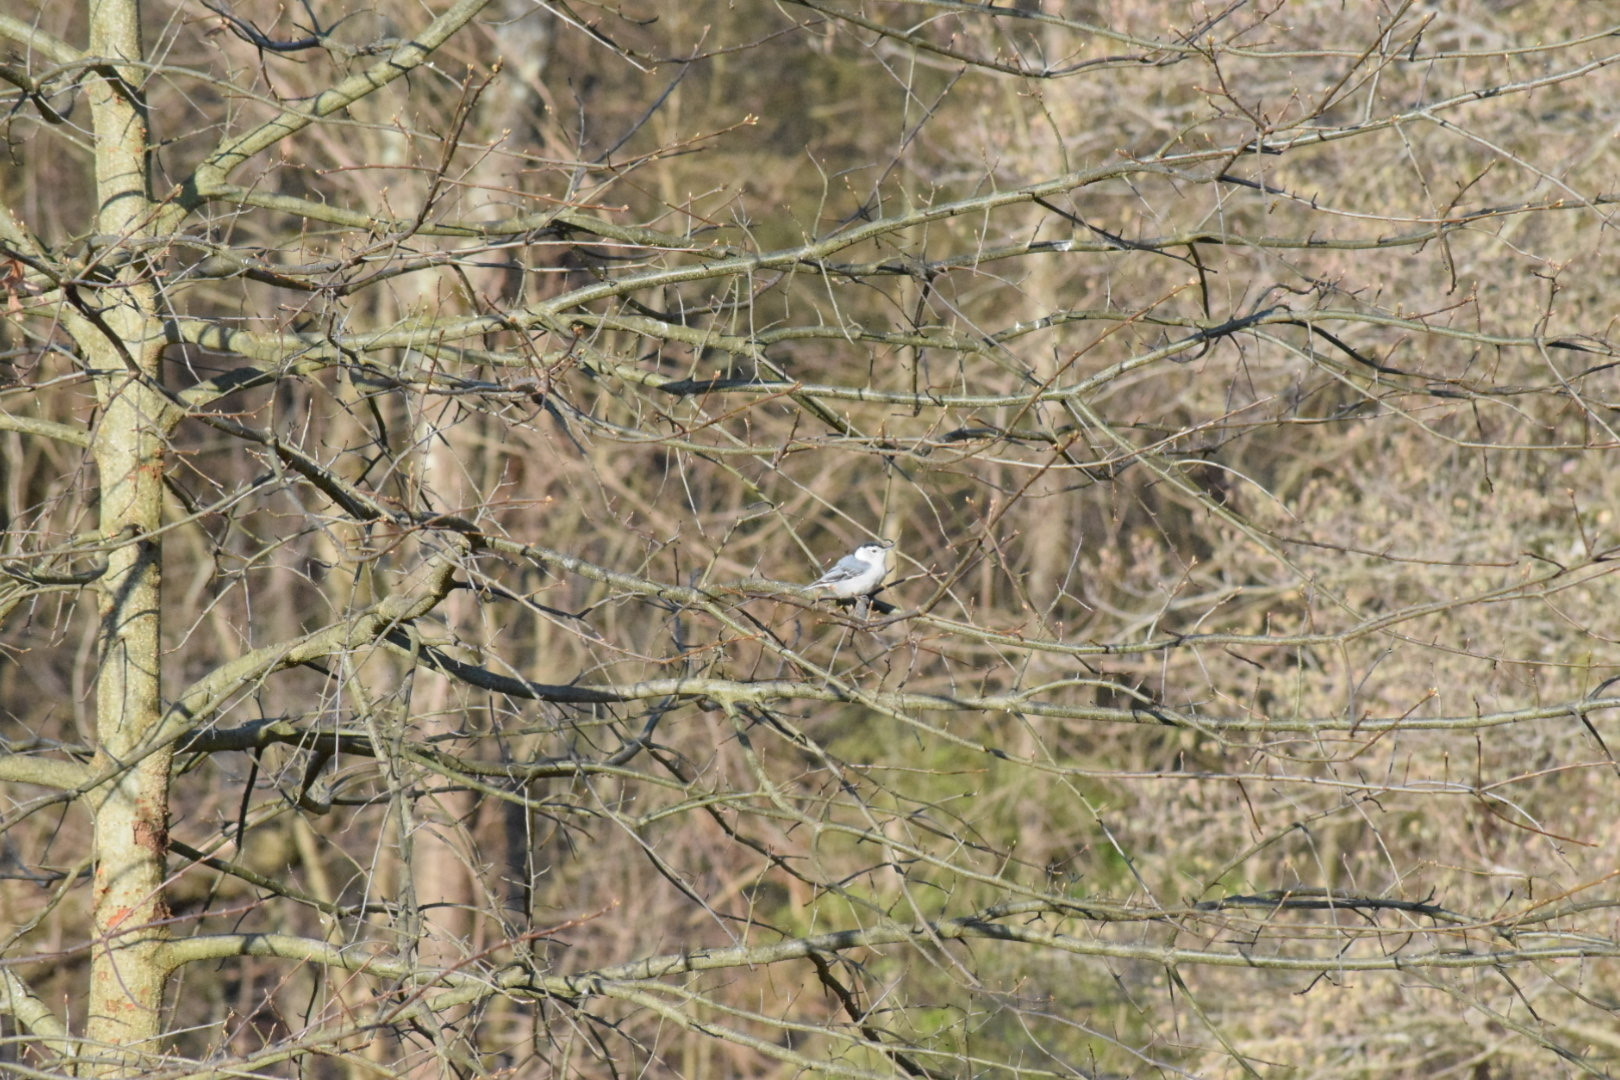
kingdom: Animalia
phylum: Chordata
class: Aves
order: Passeriformes
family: Sittidae
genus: Sitta
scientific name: Sitta carolinensis
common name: White-breasted nuthatch
